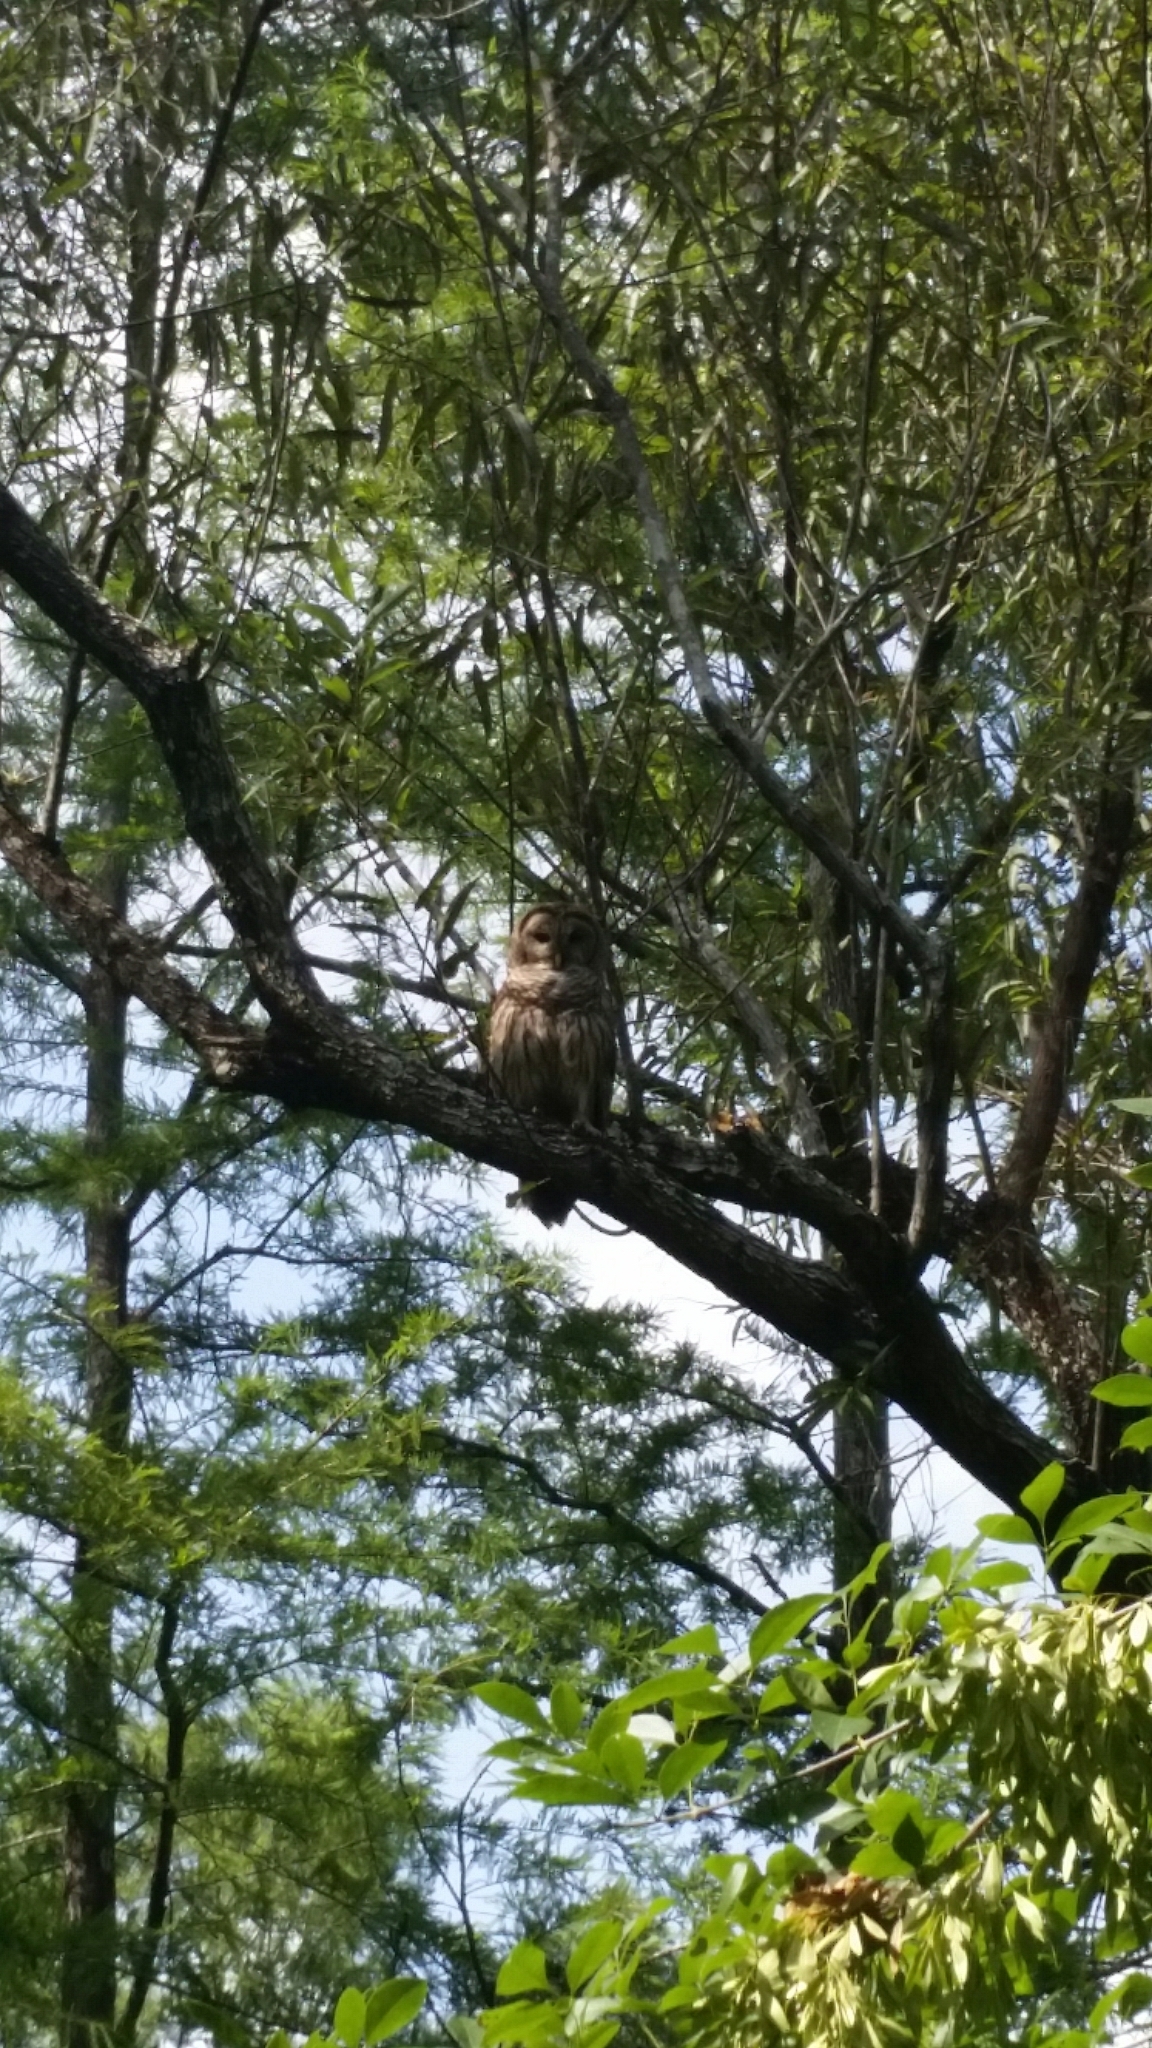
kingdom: Animalia
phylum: Chordata
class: Aves
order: Strigiformes
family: Strigidae
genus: Strix
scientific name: Strix varia
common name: Barred owl
